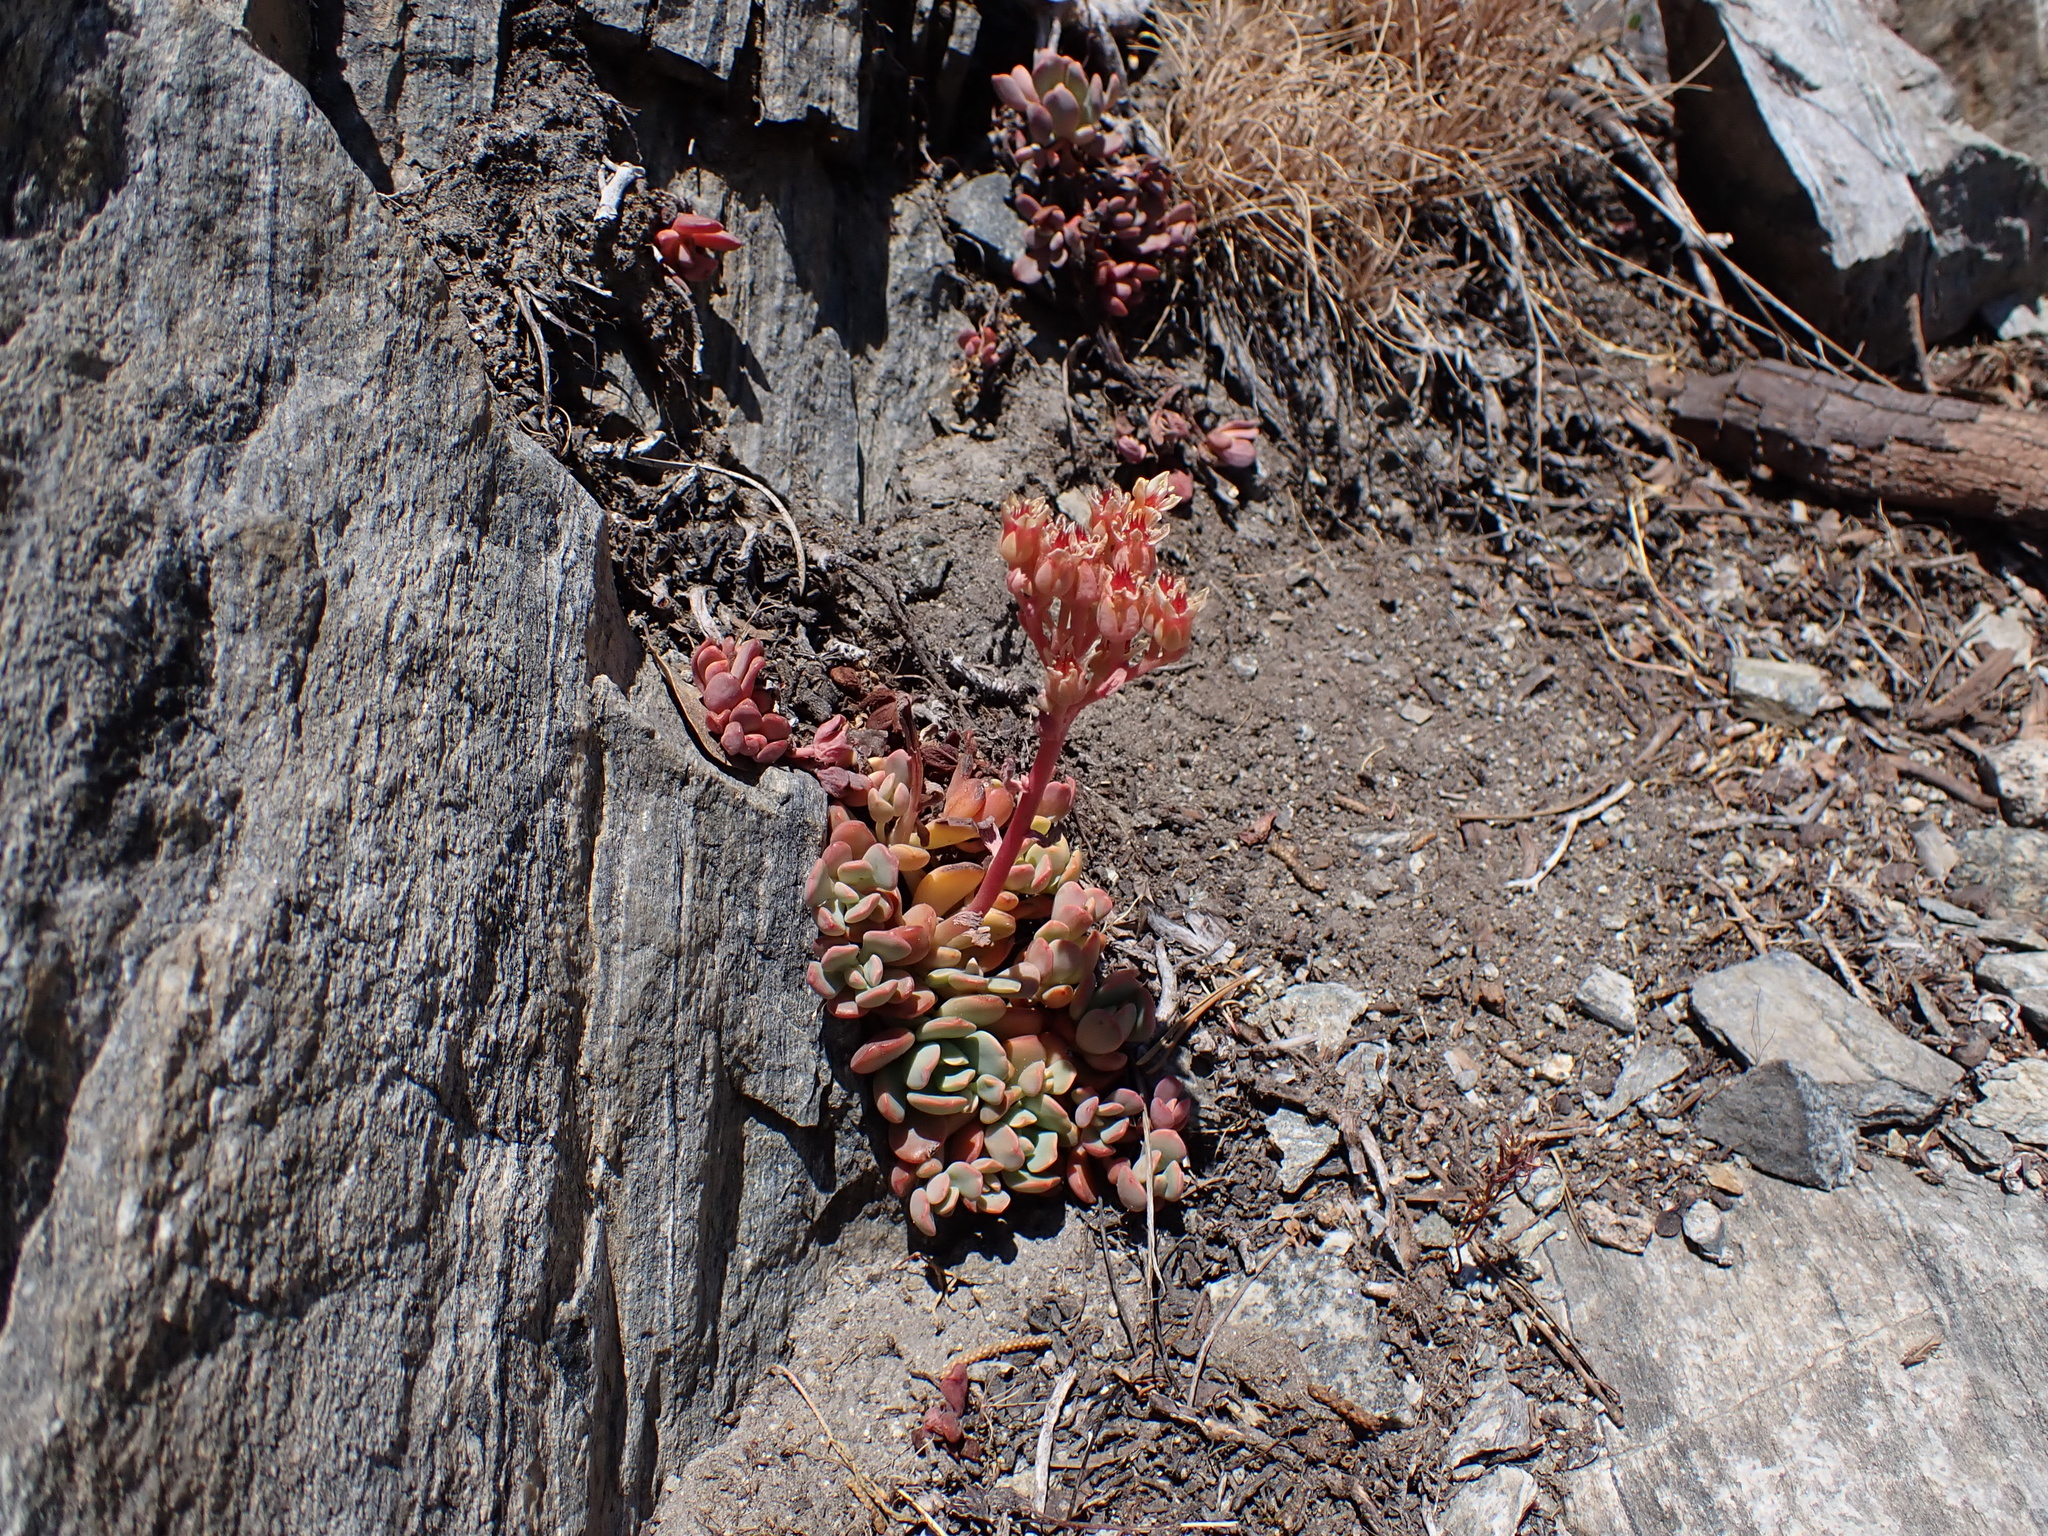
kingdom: Plantae
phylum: Tracheophyta
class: Magnoliopsida
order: Saxifragales
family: Crassulaceae
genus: Sedum
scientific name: Sedum obtusatum
